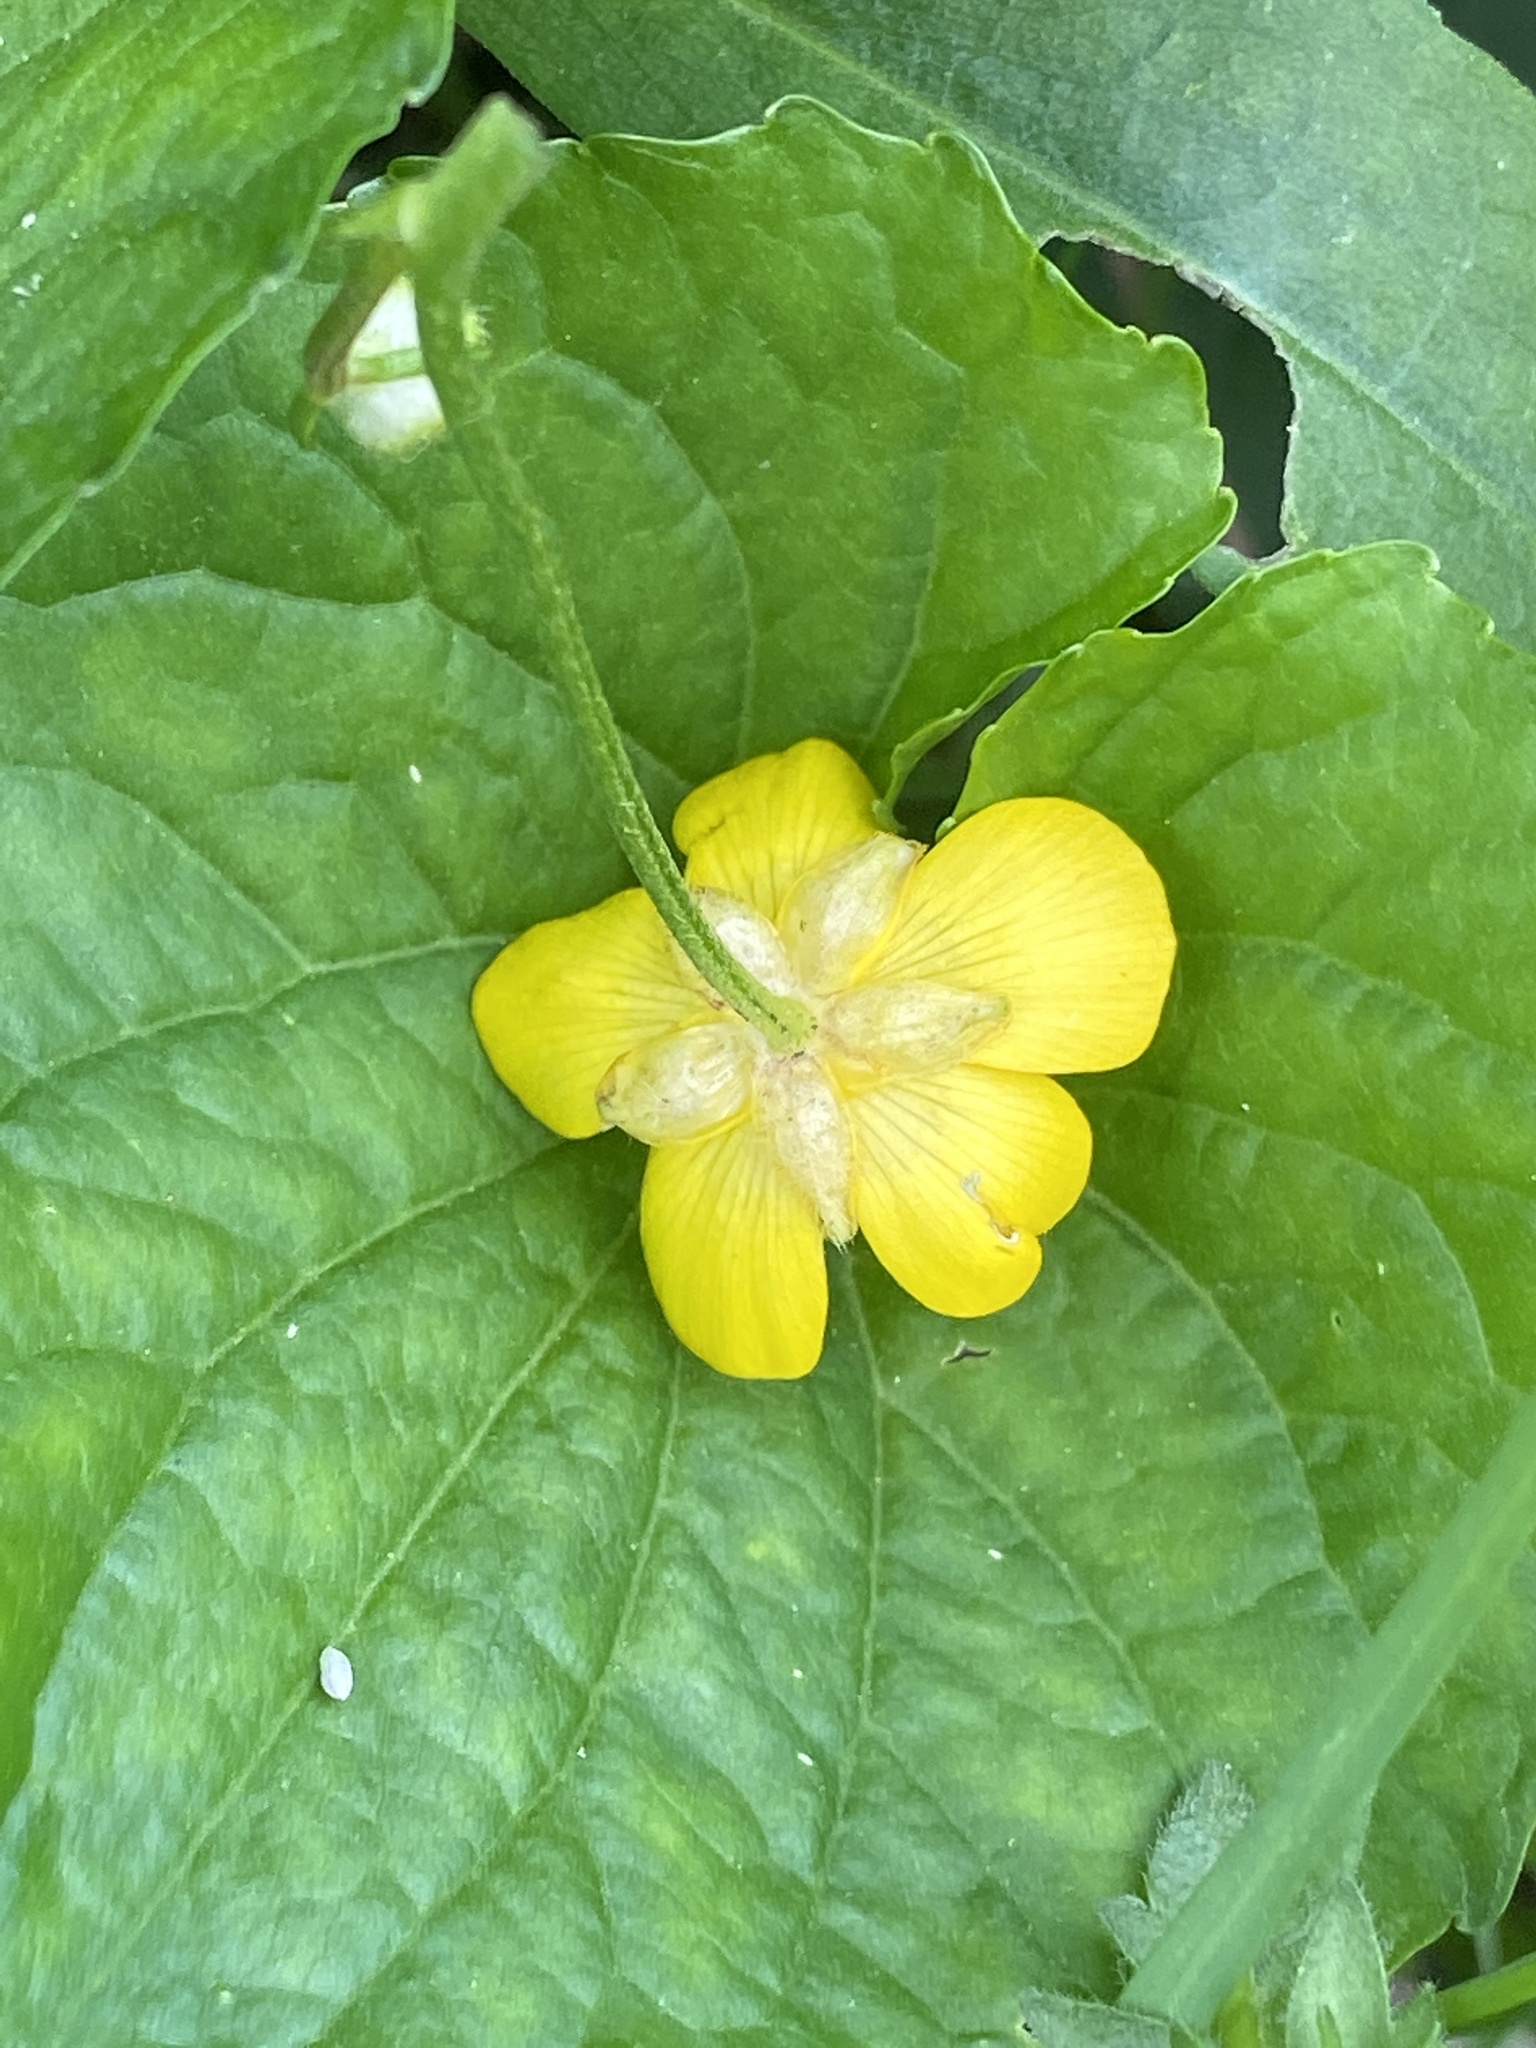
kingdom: Plantae
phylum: Tracheophyta
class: Magnoliopsida
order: Ranunculales
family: Ranunculaceae
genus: Ranunculus
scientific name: Ranunculus repens
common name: Creeping buttercup
